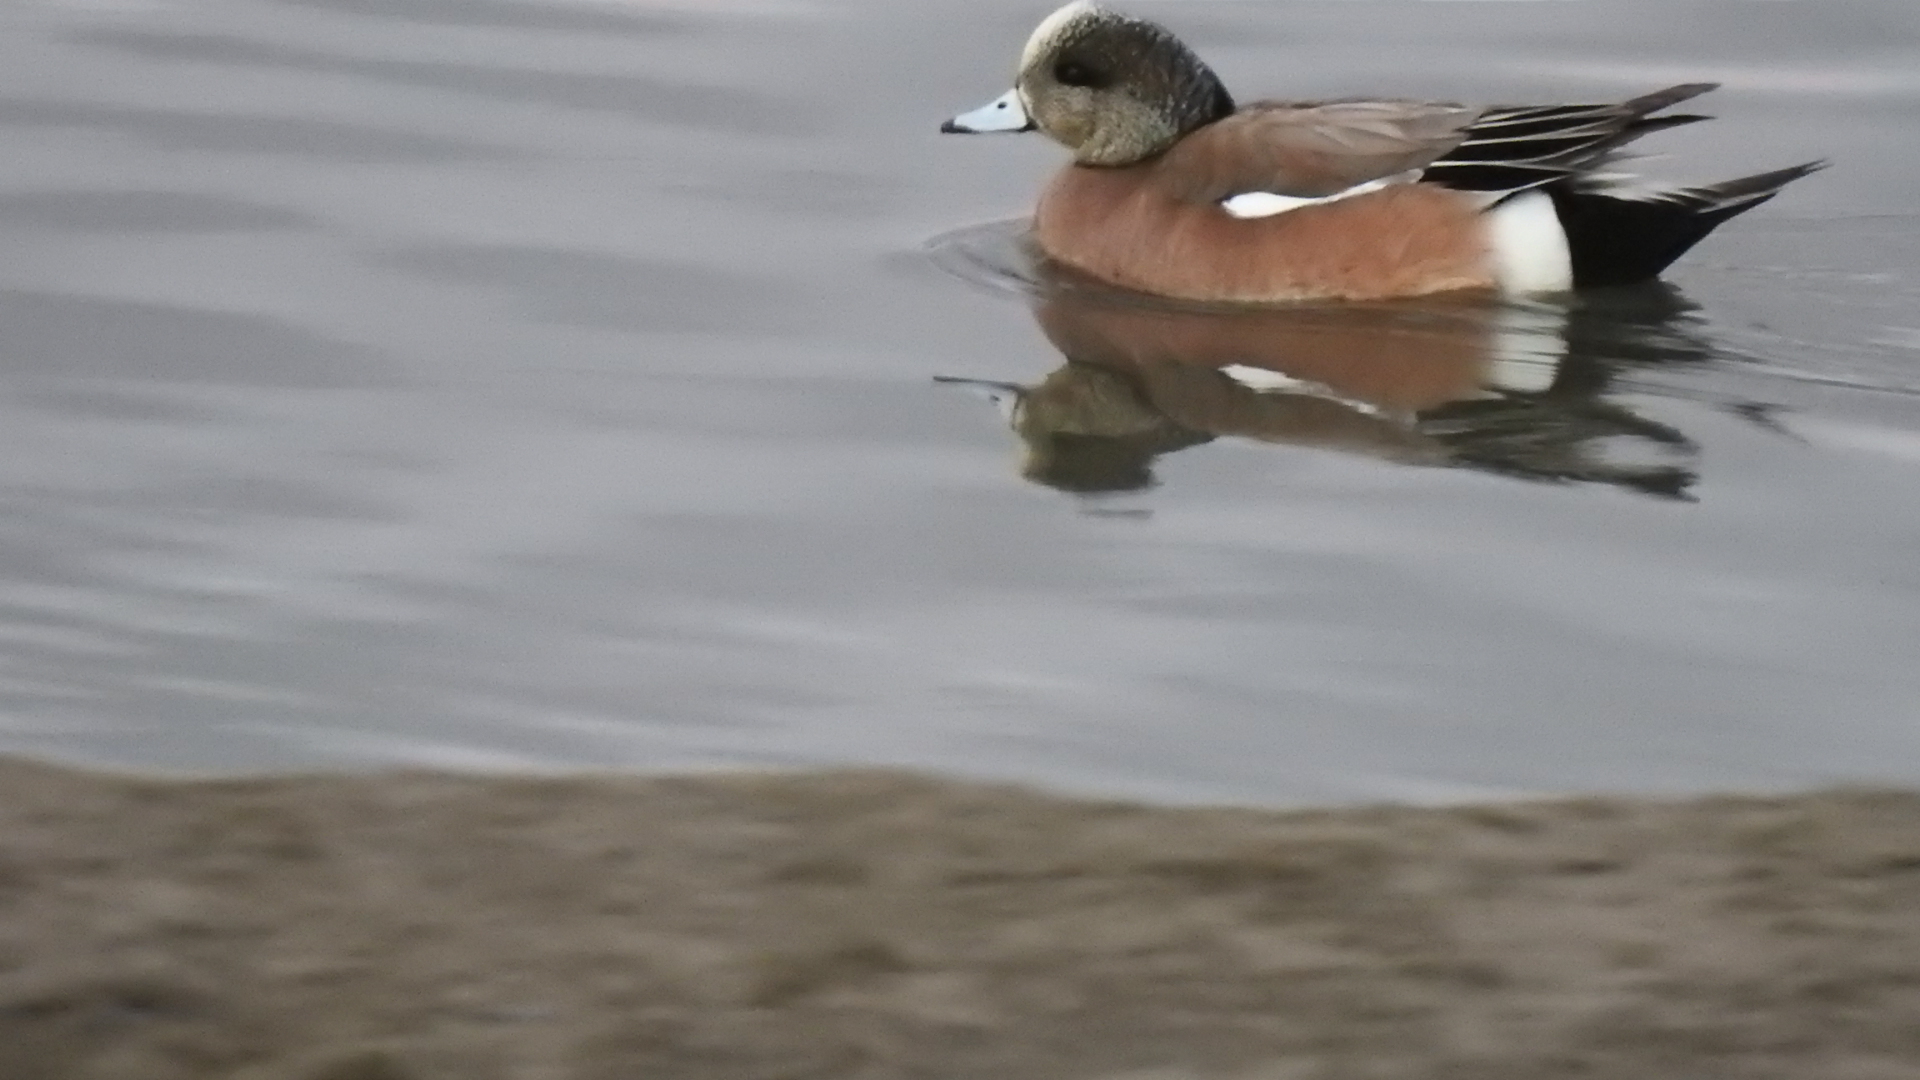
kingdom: Animalia
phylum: Chordata
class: Aves
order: Anseriformes
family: Anatidae
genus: Mareca
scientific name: Mareca americana
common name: American wigeon
